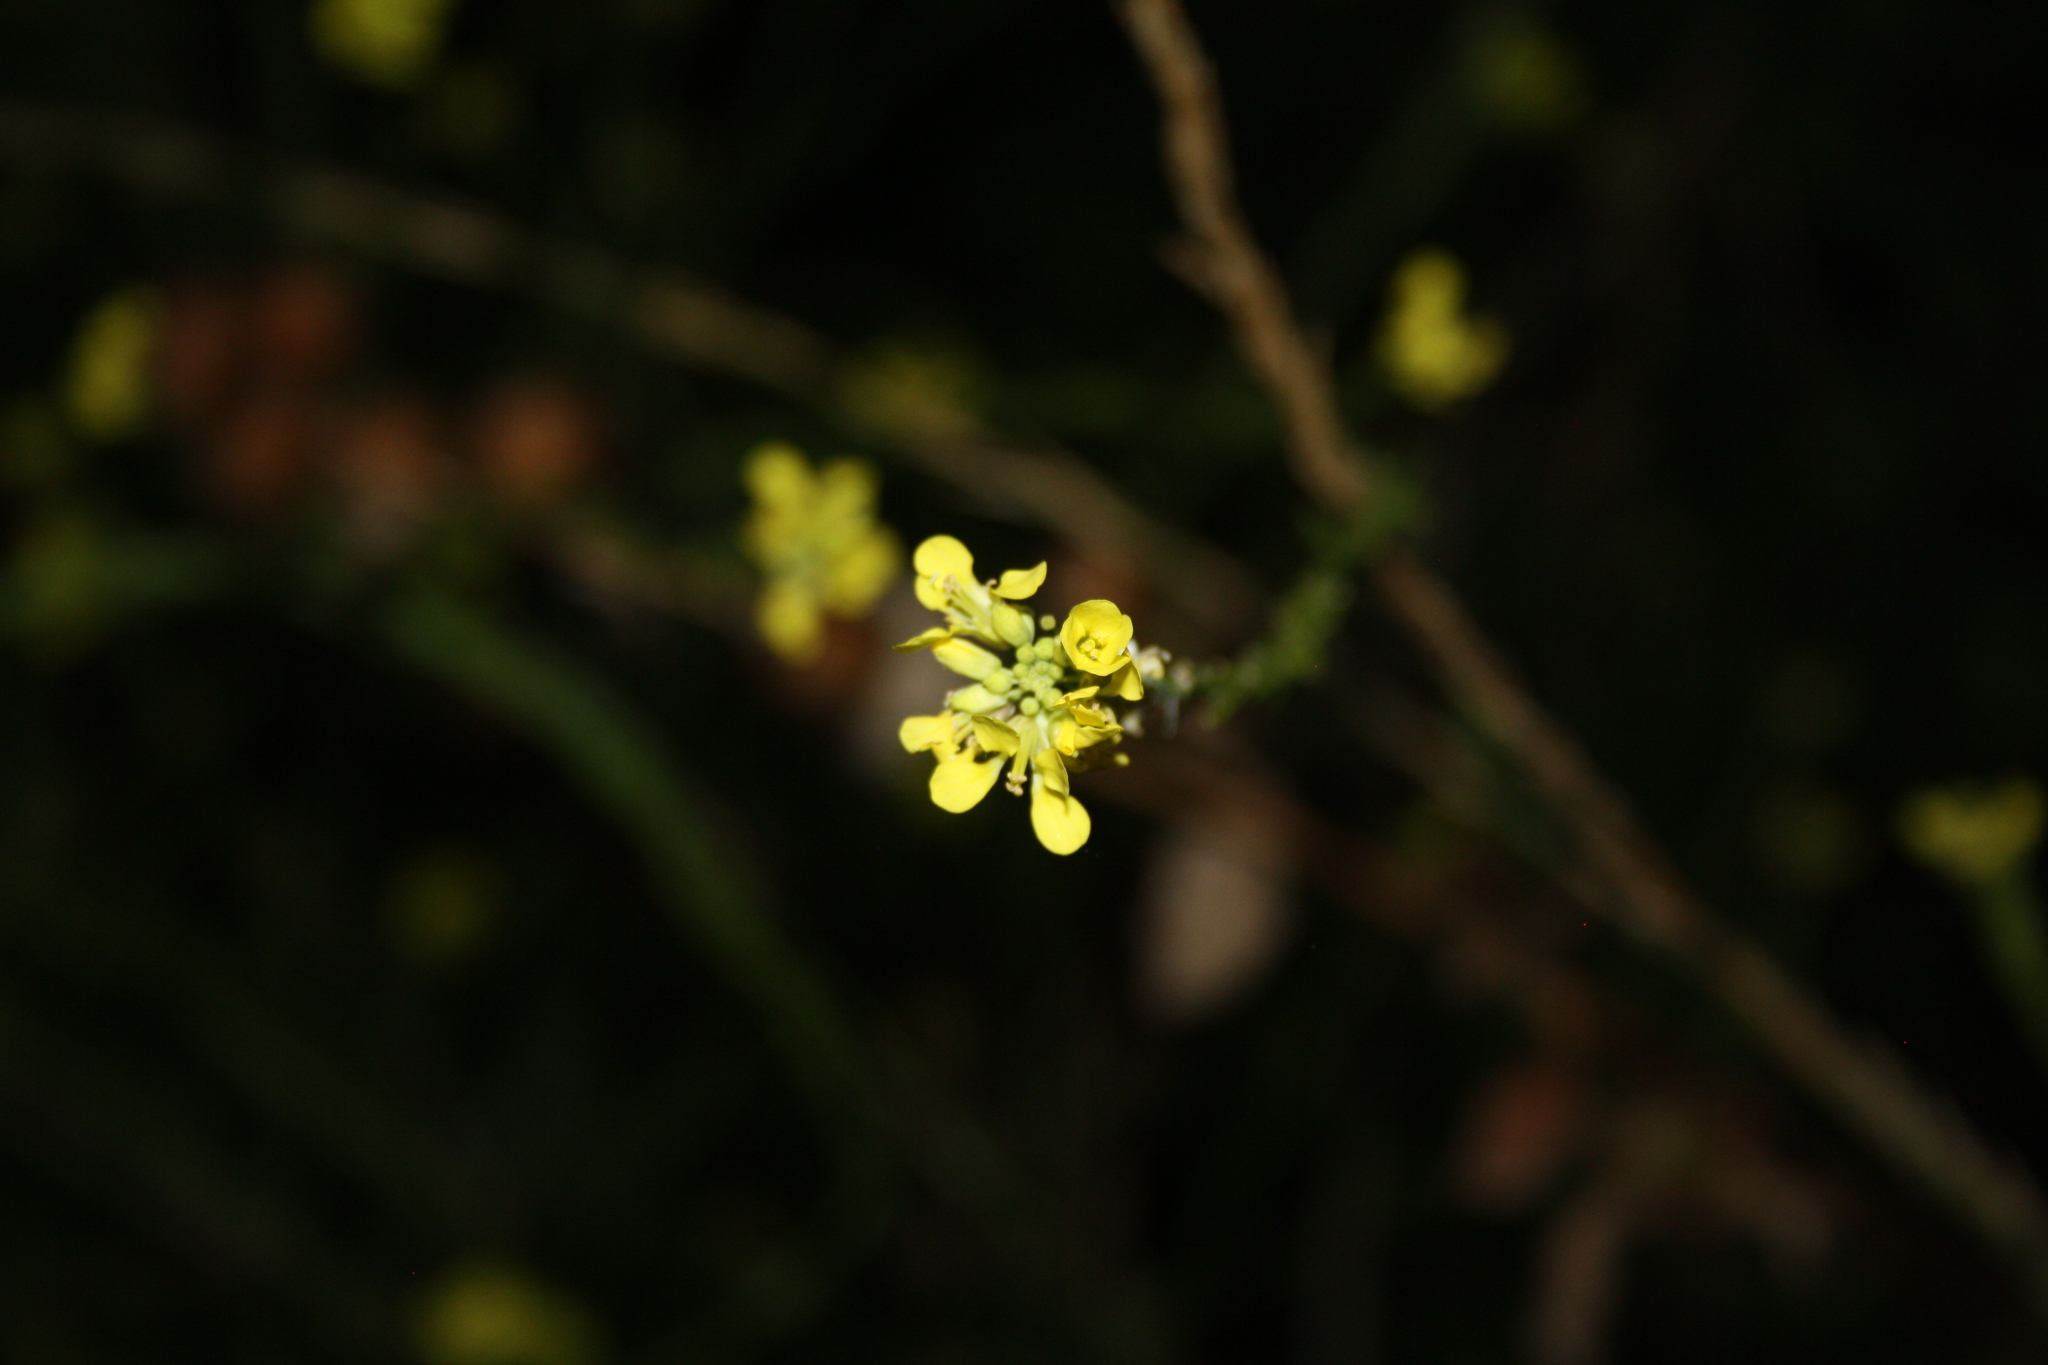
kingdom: Plantae
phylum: Tracheophyta
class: Magnoliopsida
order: Brassicales
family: Brassicaceae
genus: Hirschfeldia
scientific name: Hirschfeldia incana
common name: Hoary mustard
